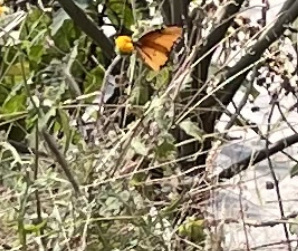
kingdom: Animalia
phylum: Arthropoda
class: Insecta
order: Lepidoptera
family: Nymphalidae
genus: Danaus
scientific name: Danaus chrysippus
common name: Plain tiger
